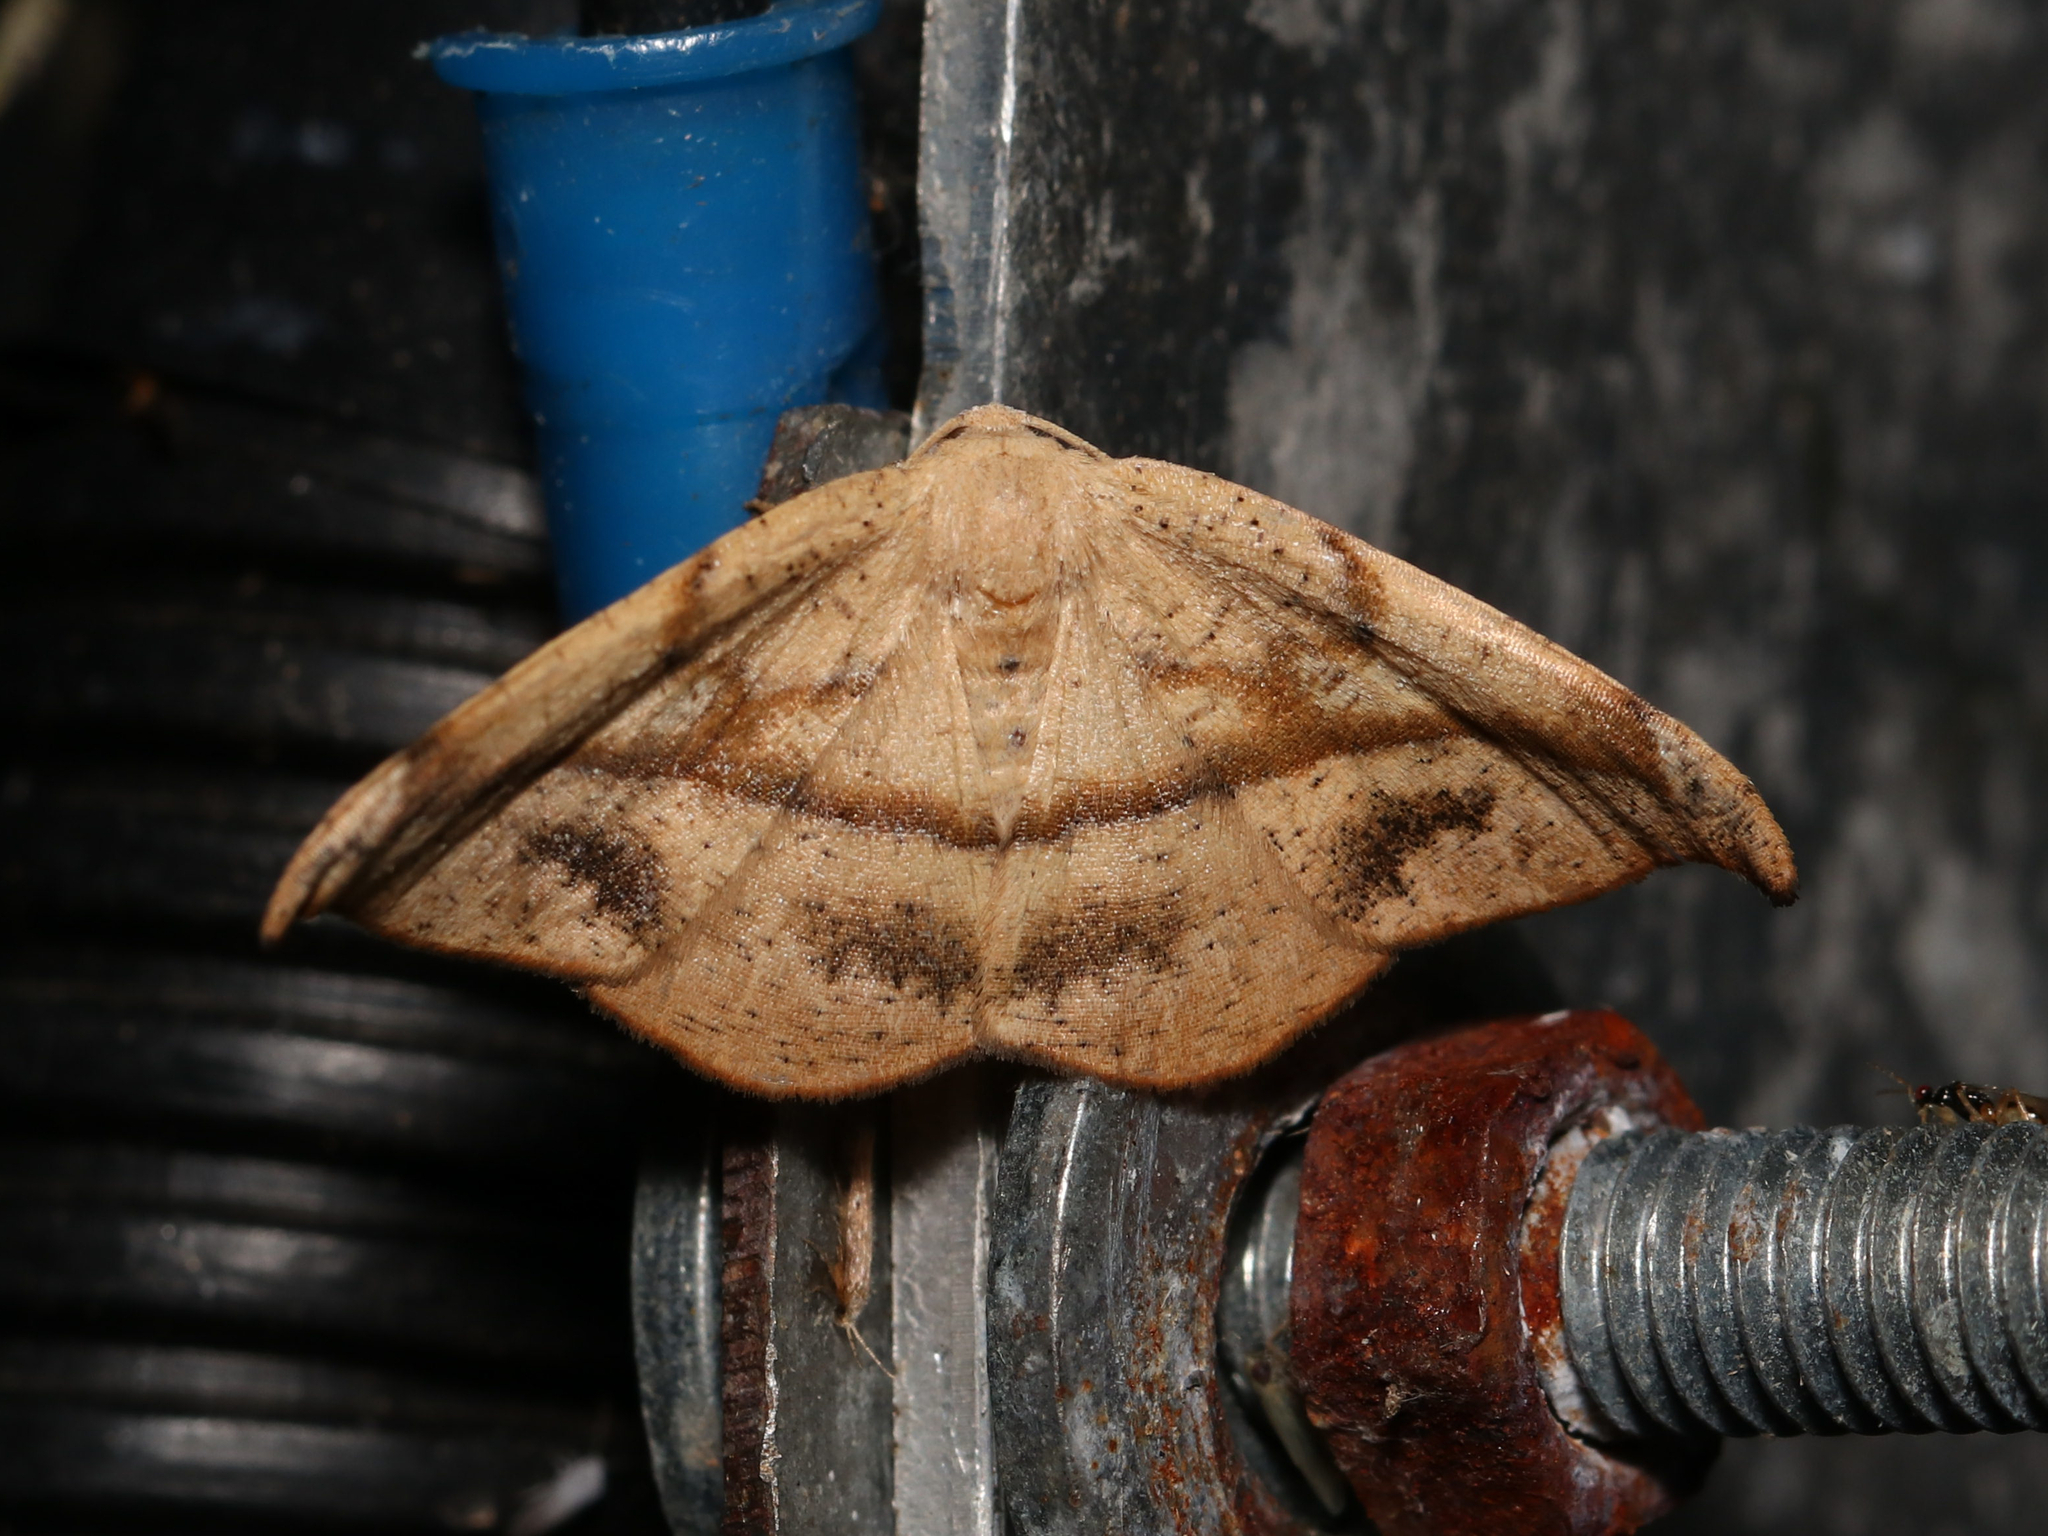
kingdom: Animalia
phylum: Arthropoda
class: Insecta
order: Lepidoptera
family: Geometridae
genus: Patalene
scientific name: Patalene olyzonaria
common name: Juniper geometer moth
